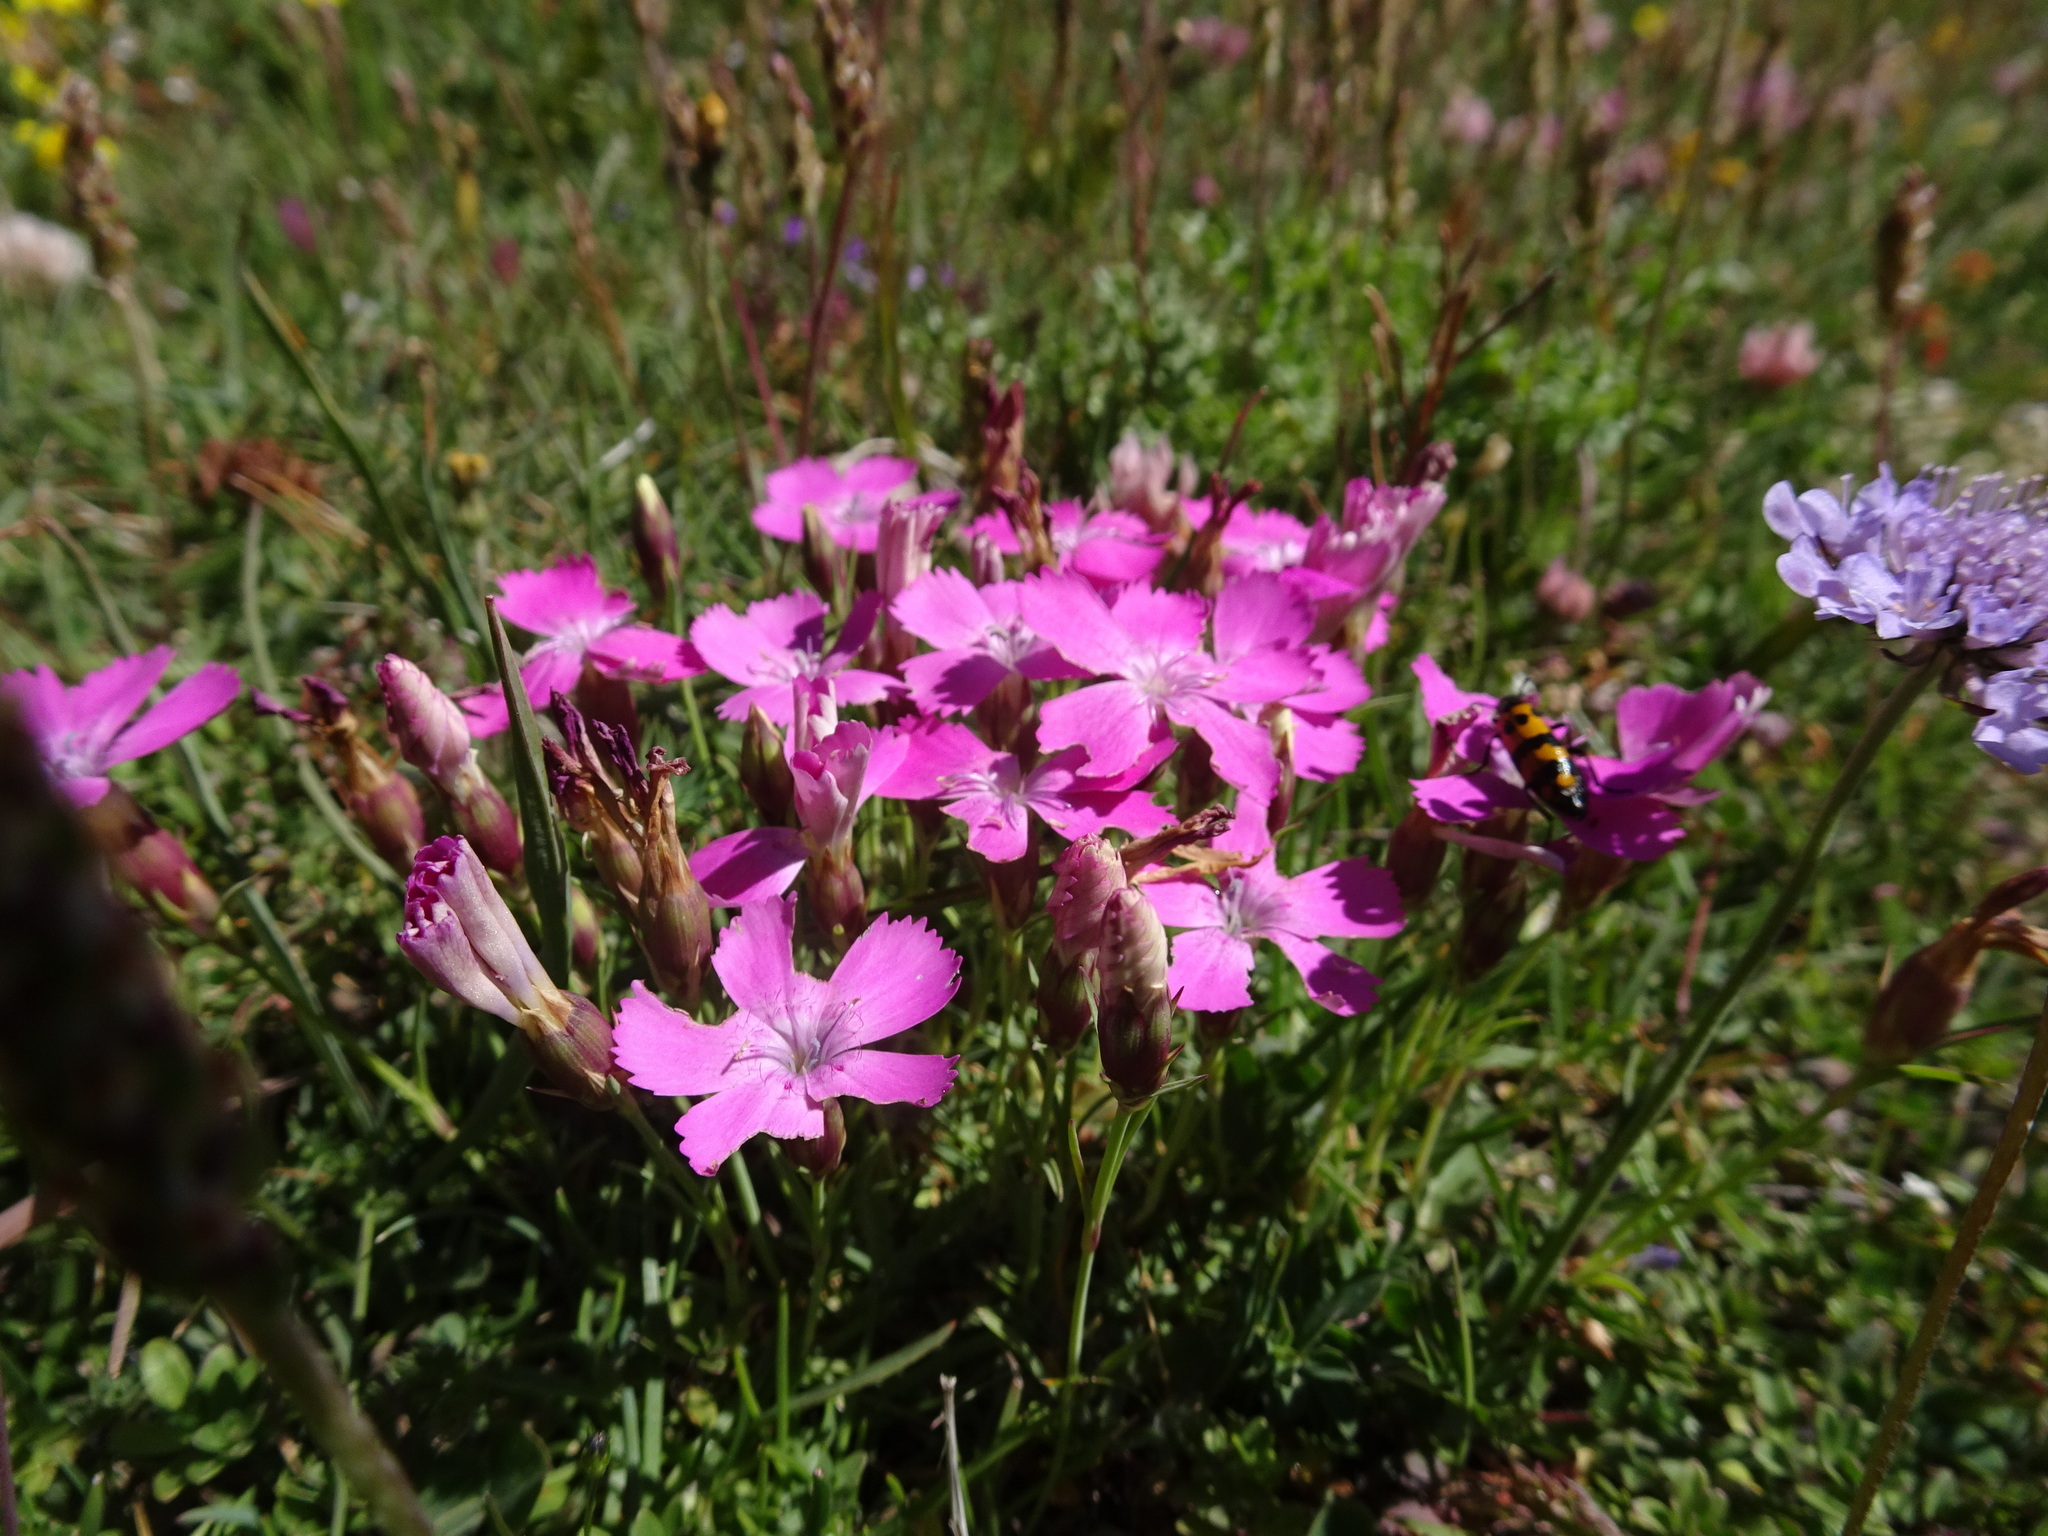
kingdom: Plantae
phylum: Tracheophyta
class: Magnoliopsida
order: Caryophyllales
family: Caryophyllaceae
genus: Dianthus
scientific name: Dianthus pavonius
